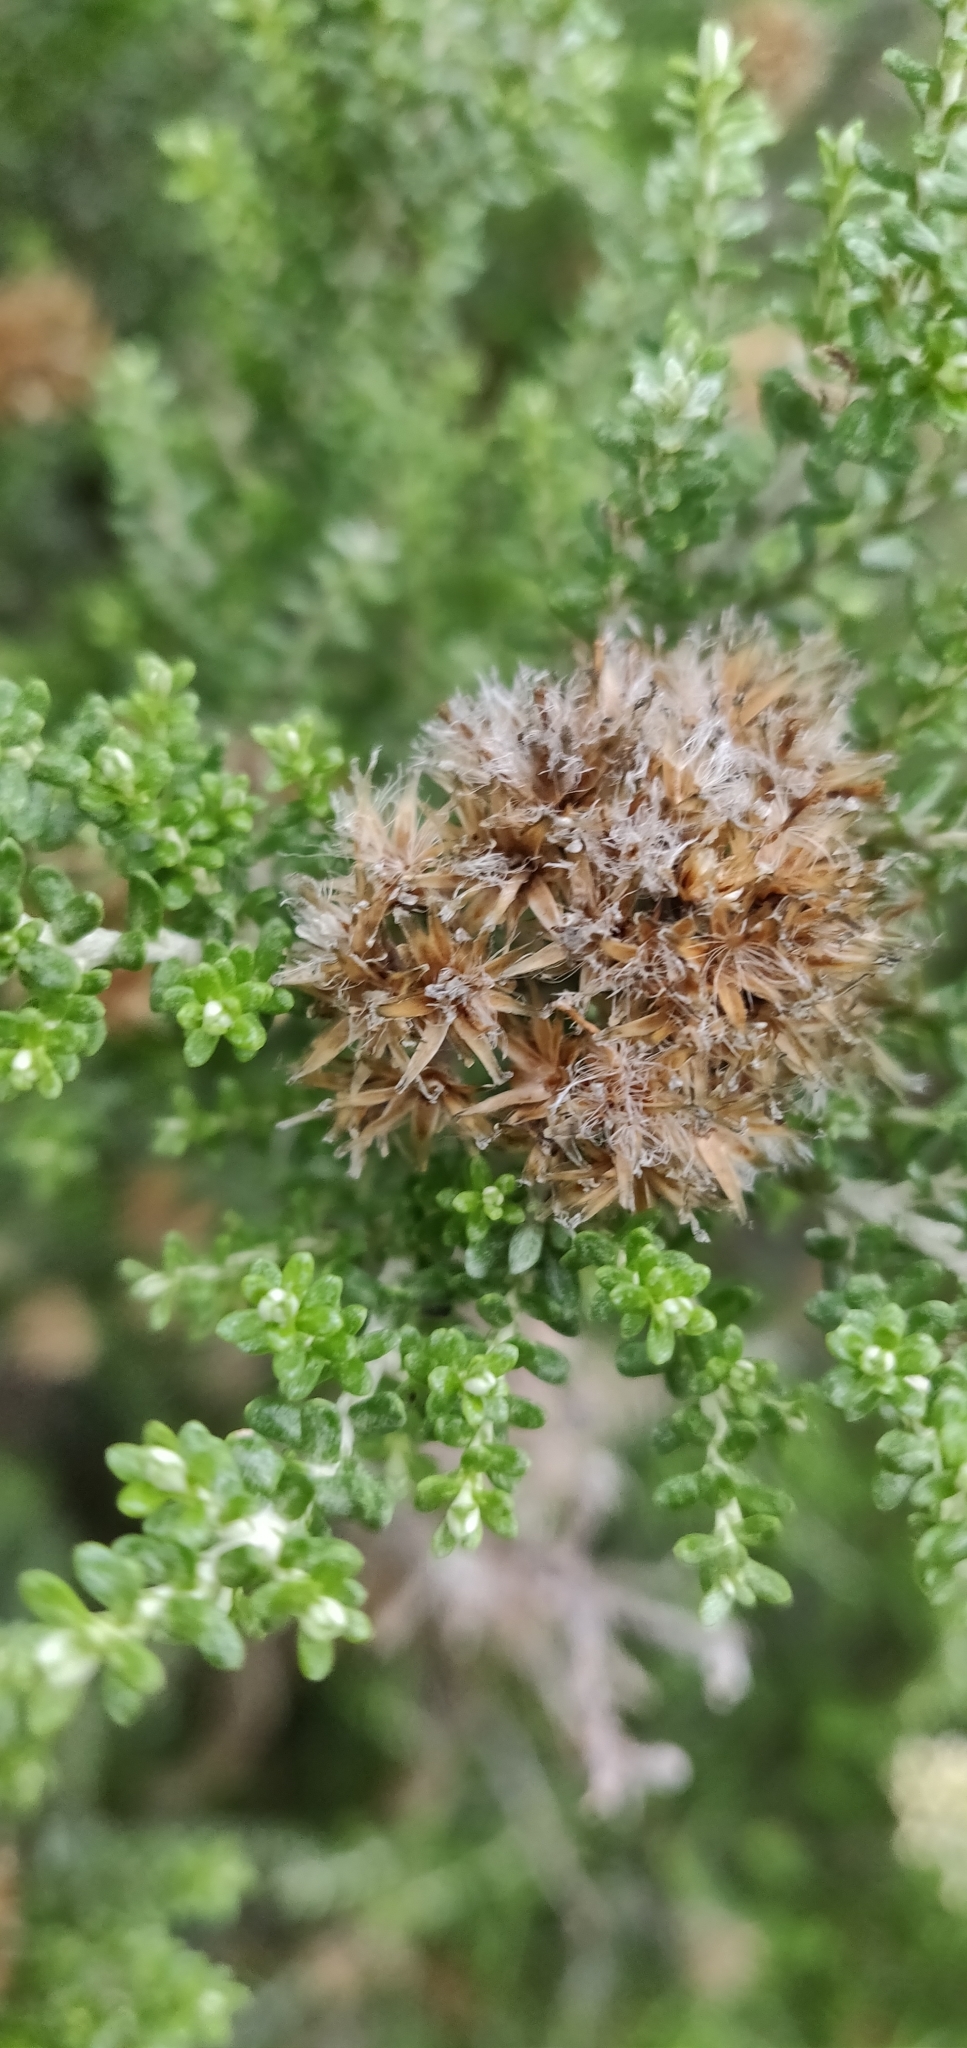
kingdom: Plantae
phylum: Tracheophyta
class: Magnoliopsida
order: Asterales
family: Asteraceae
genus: Ozothamnus
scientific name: Ozothamnus leptophyllus
